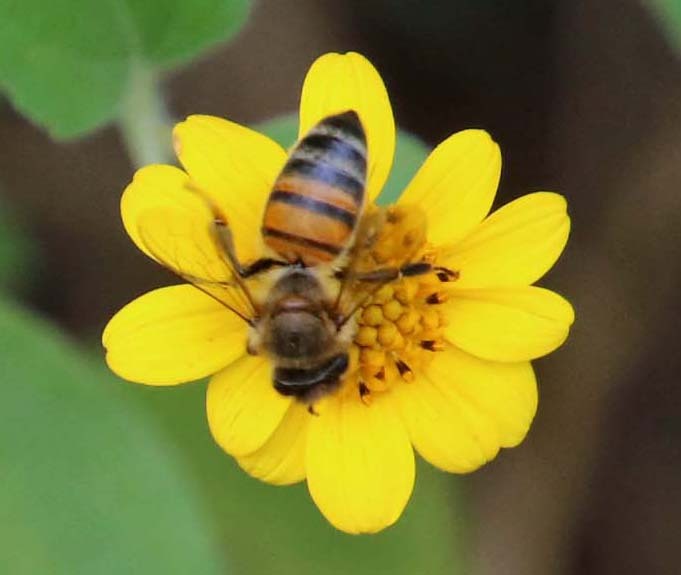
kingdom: Animalia
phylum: Arthropoda
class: Insecta
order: Hymenoptera
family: Apidae
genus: Apis
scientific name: Apis mellifera
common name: Honey bee
